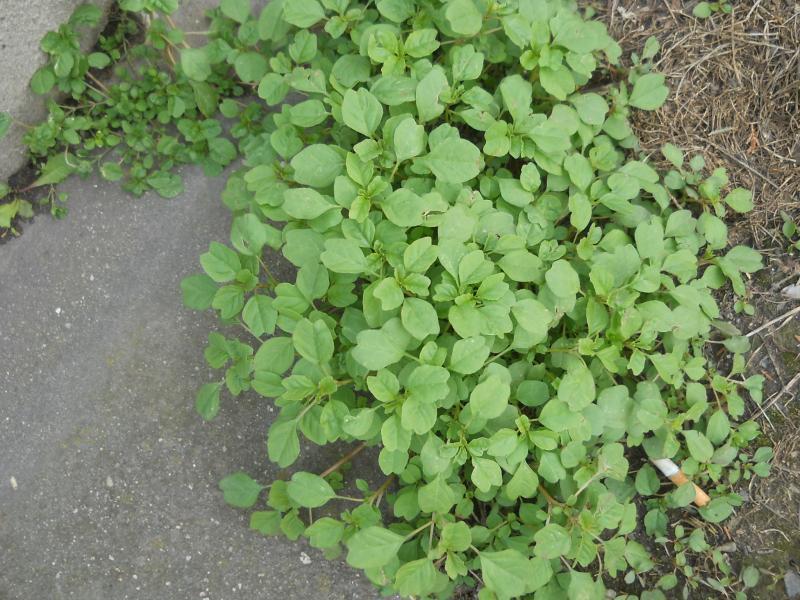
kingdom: Plantae
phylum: Tracheophyta
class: Magnoliopsida
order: Caryophyllales
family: Amaranthaceae
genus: Amaranthus
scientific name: Amaranthus blitum
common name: Purple amaranth
